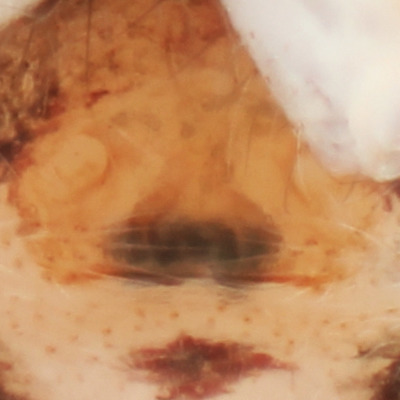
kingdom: Animalia
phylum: Arthropoda
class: Arachnida
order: Araneae
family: Salticidae
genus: Zygoballus
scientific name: Zygoballus
